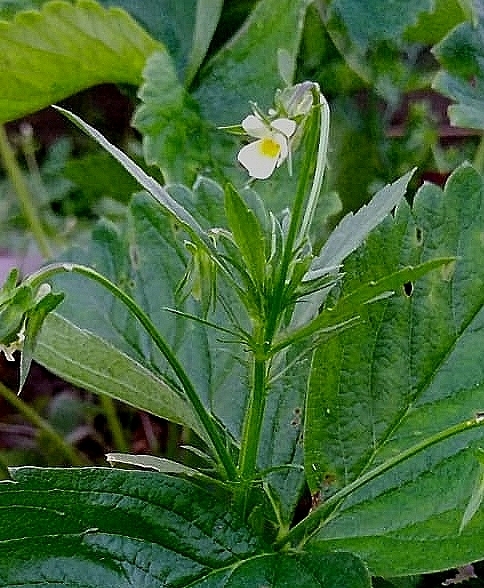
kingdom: Plantae
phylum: Tracheophyta
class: Magnoliopsida
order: Malpighiales
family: Violaceae
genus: Viola
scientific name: Viola arvensis
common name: Field pansy
